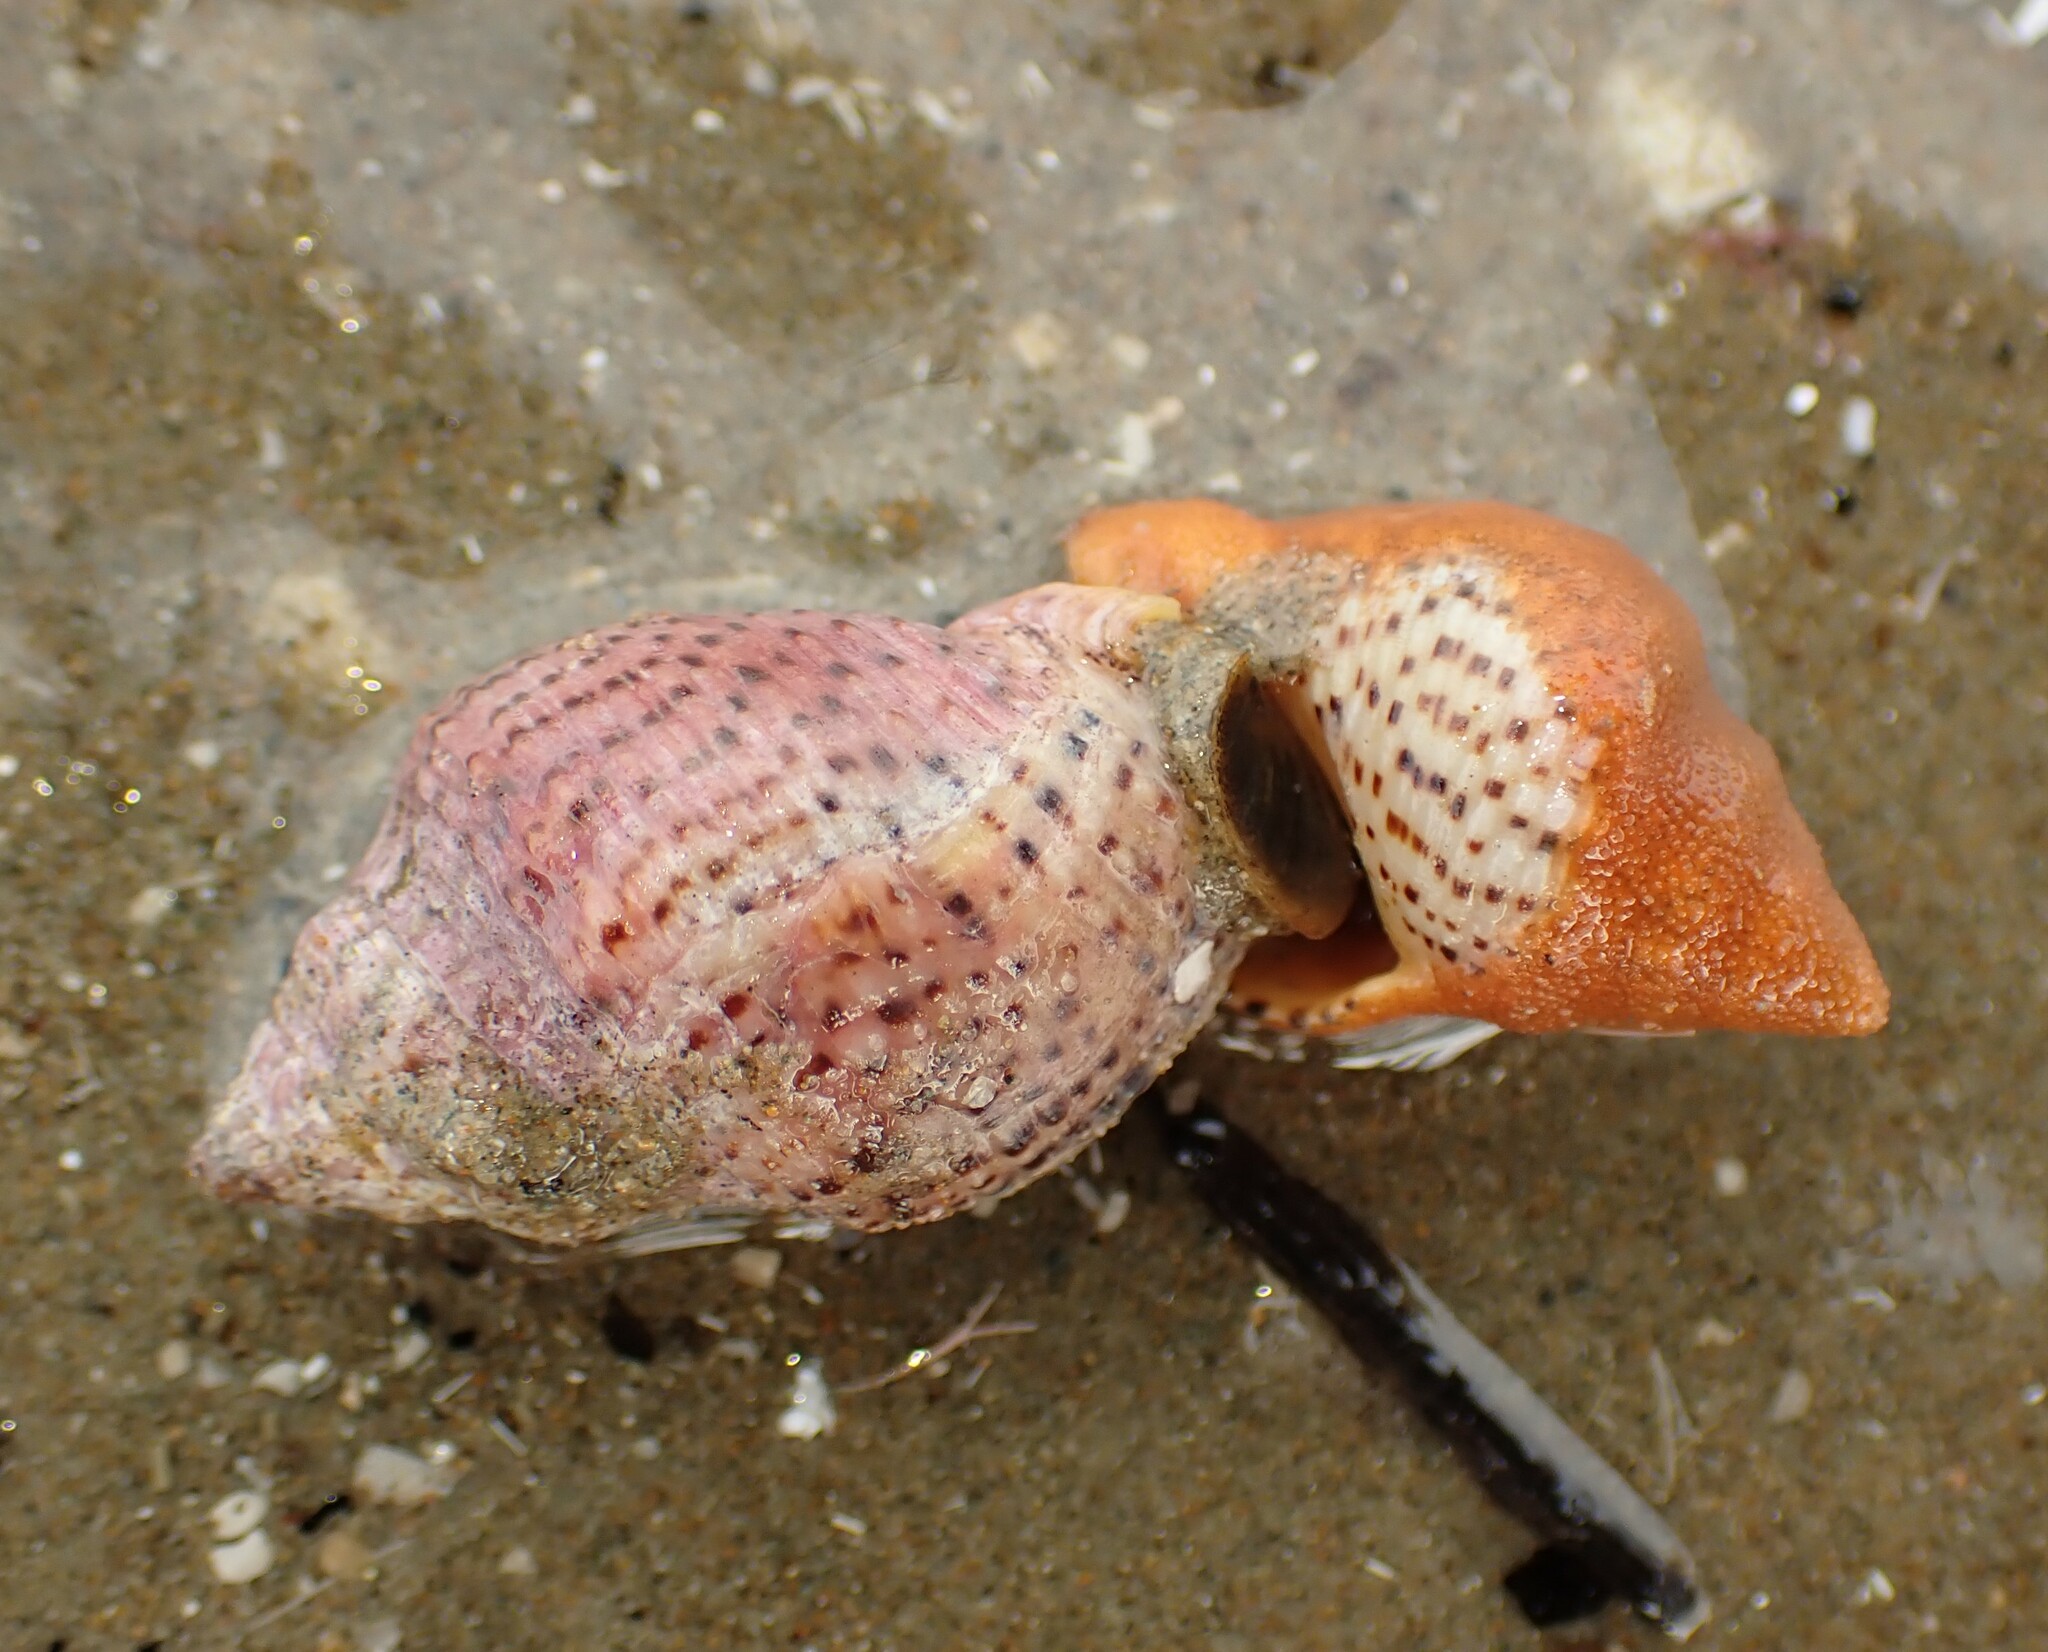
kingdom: Animalia
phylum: Mollusca
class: Gastropoda
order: Neogastropoda
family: Cominellidae
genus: Cominella
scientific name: Cominella adspersa
